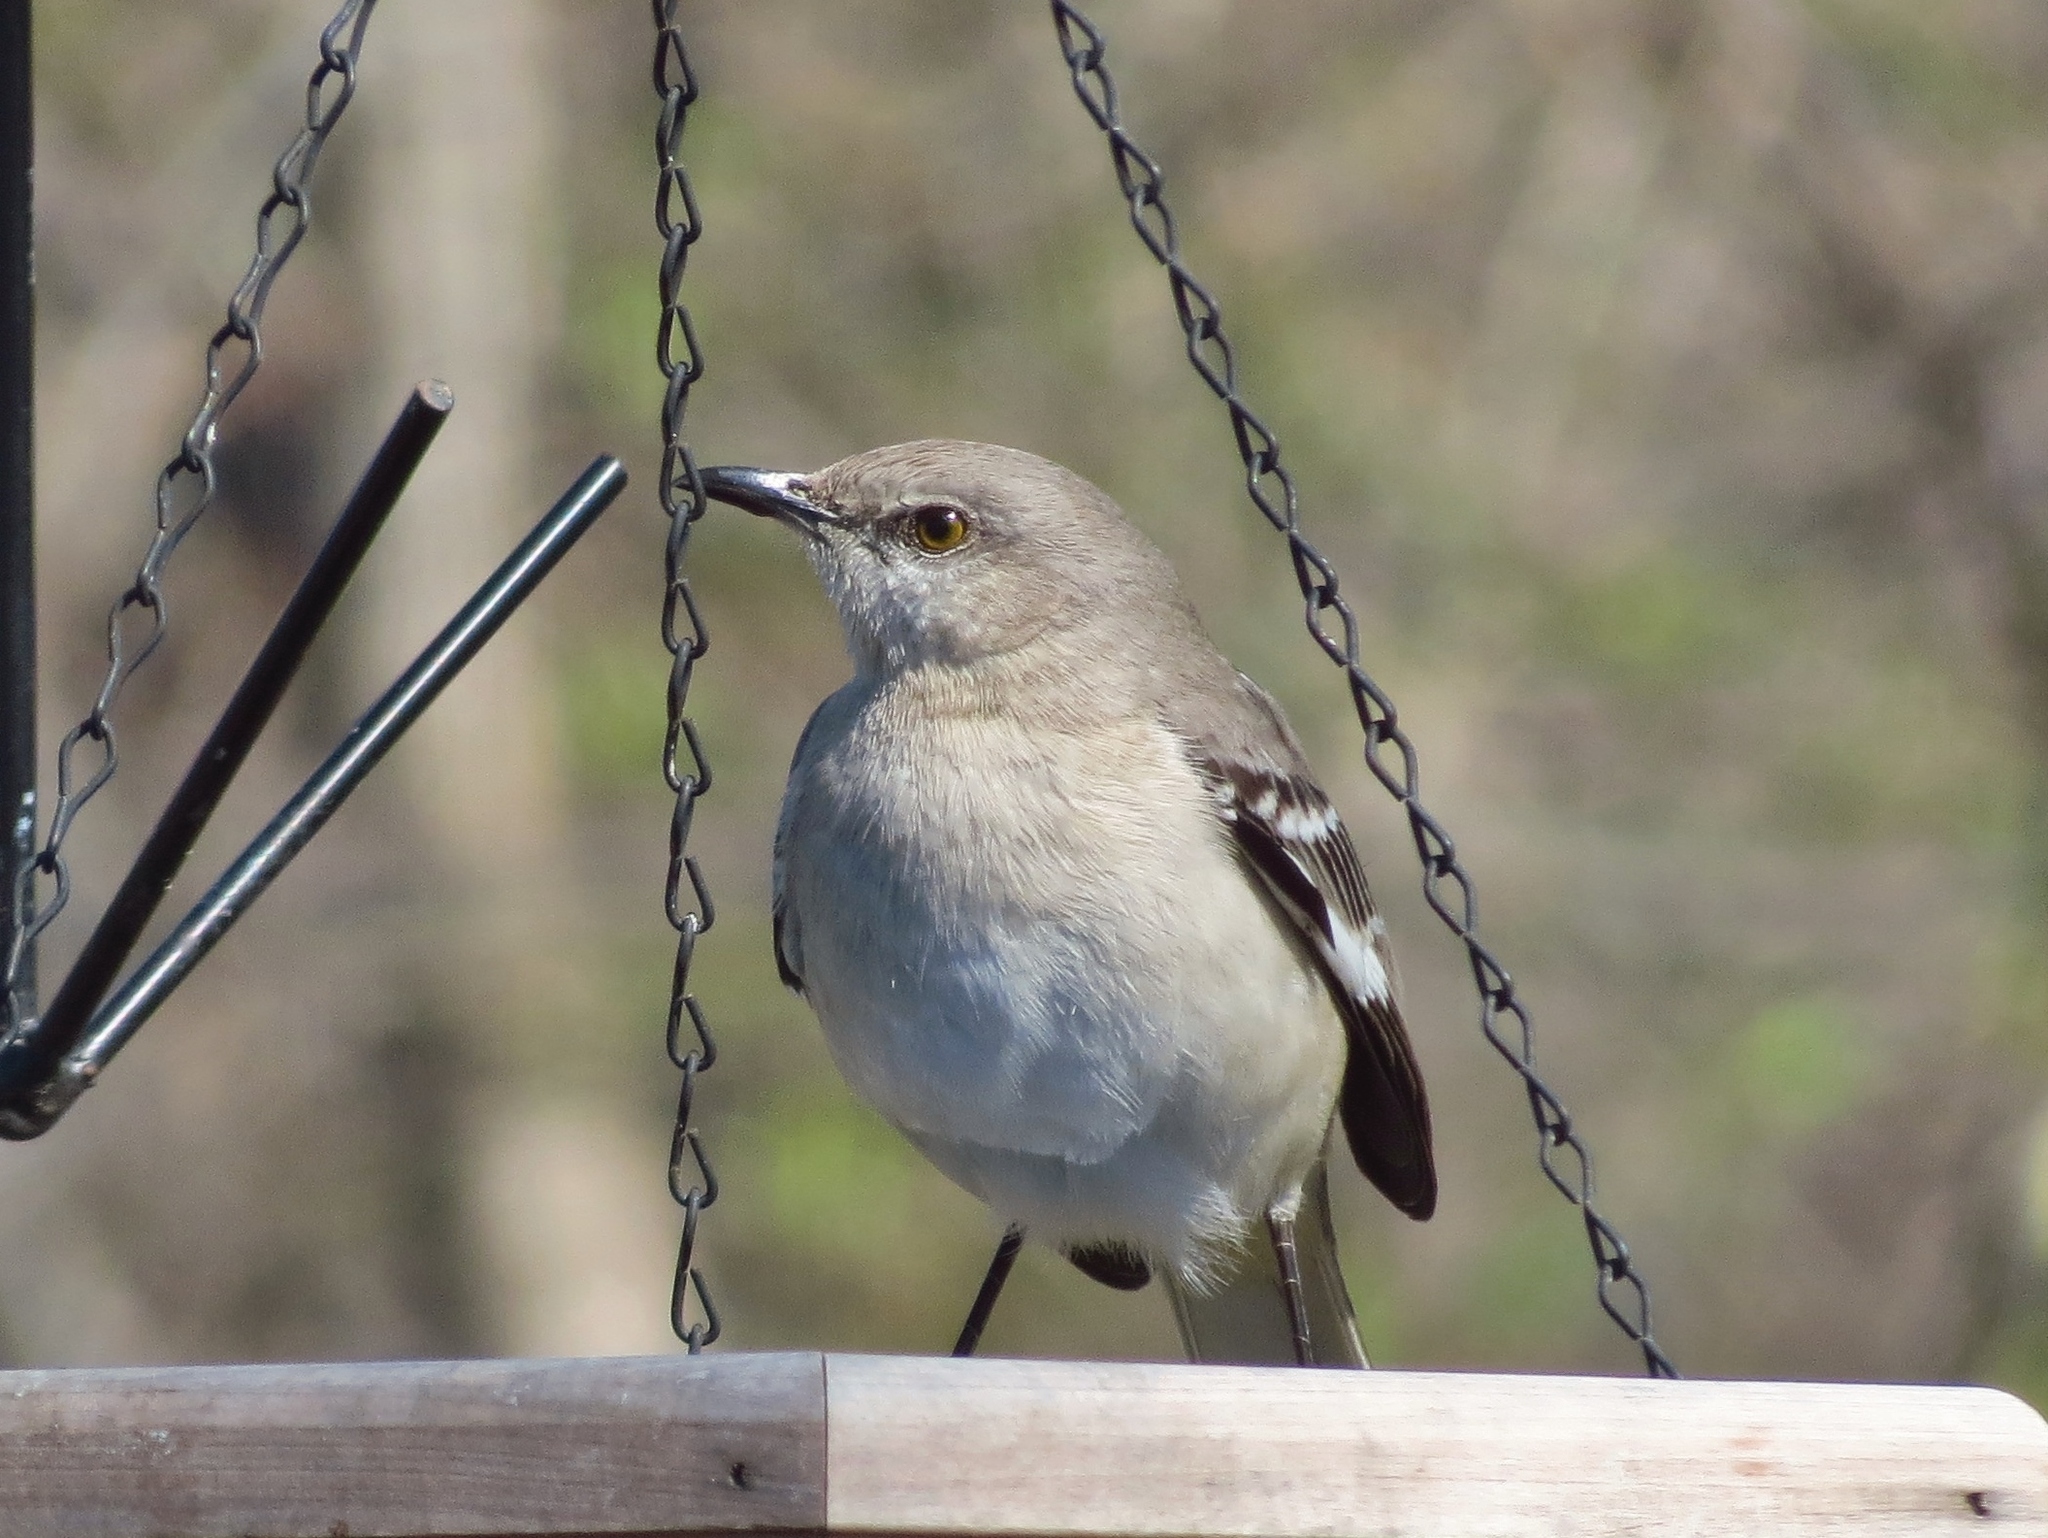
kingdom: Animalia
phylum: Chordata
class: Aves
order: Passeriformes
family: Mimidae
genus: Mimus
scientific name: Mimus polyglottos
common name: Northern mockingbird
